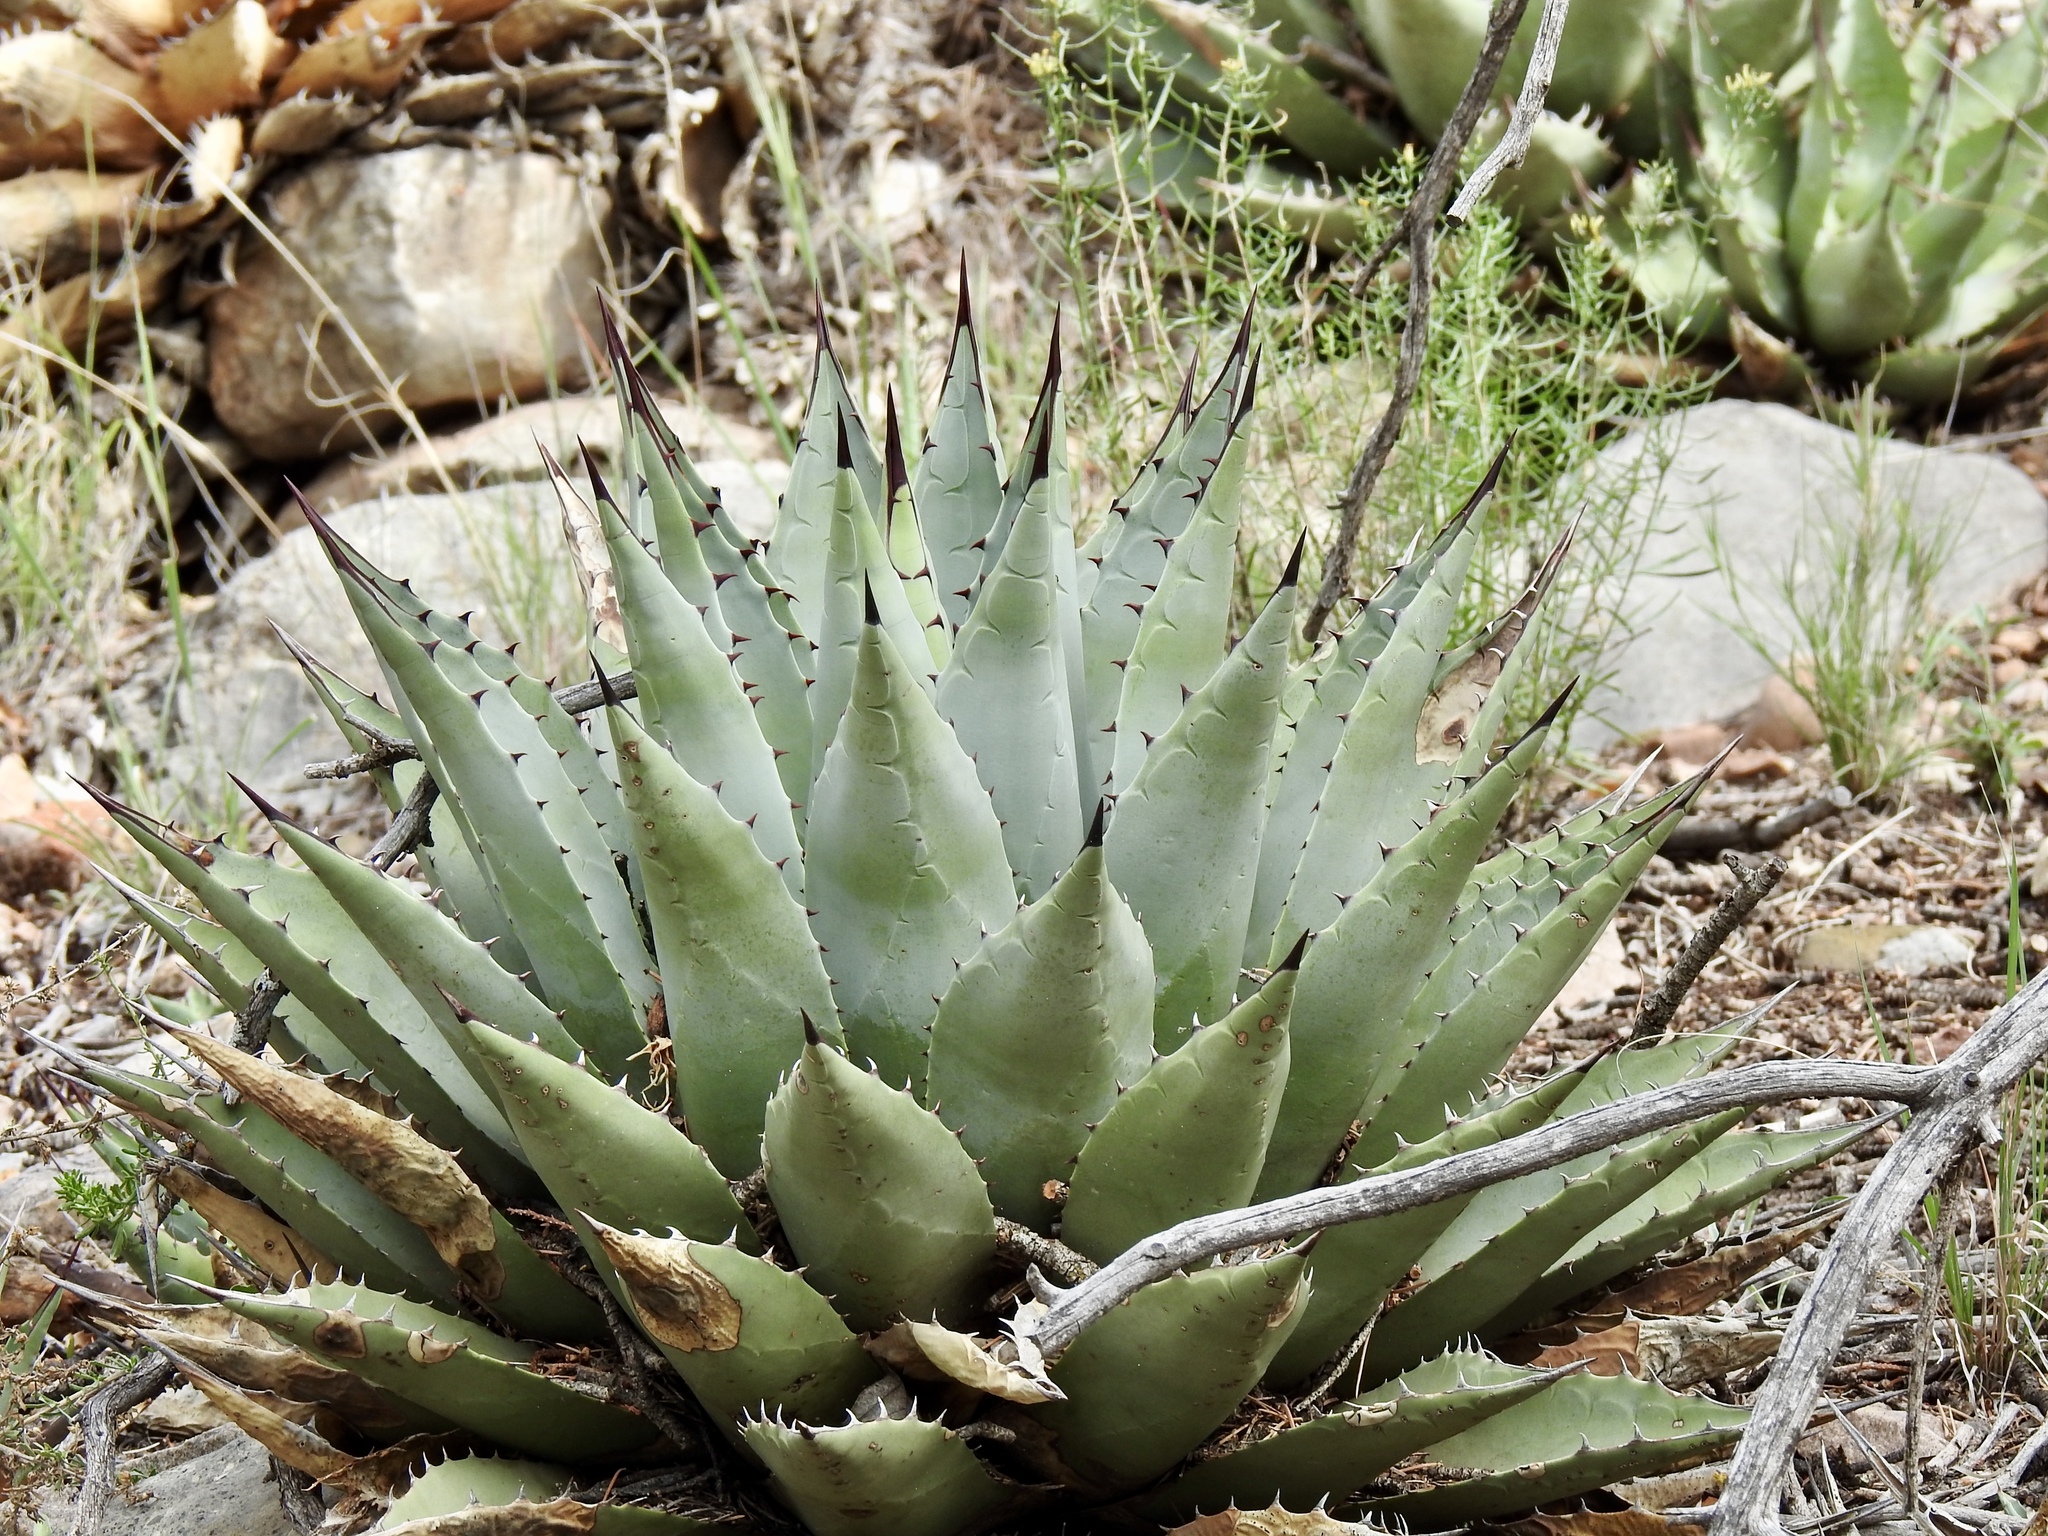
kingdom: Plantae
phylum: Tracheophyta
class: Liliopsida
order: Asparagales
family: Asparagaceae
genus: Agave
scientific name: Agave parryi
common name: Parry's agave
